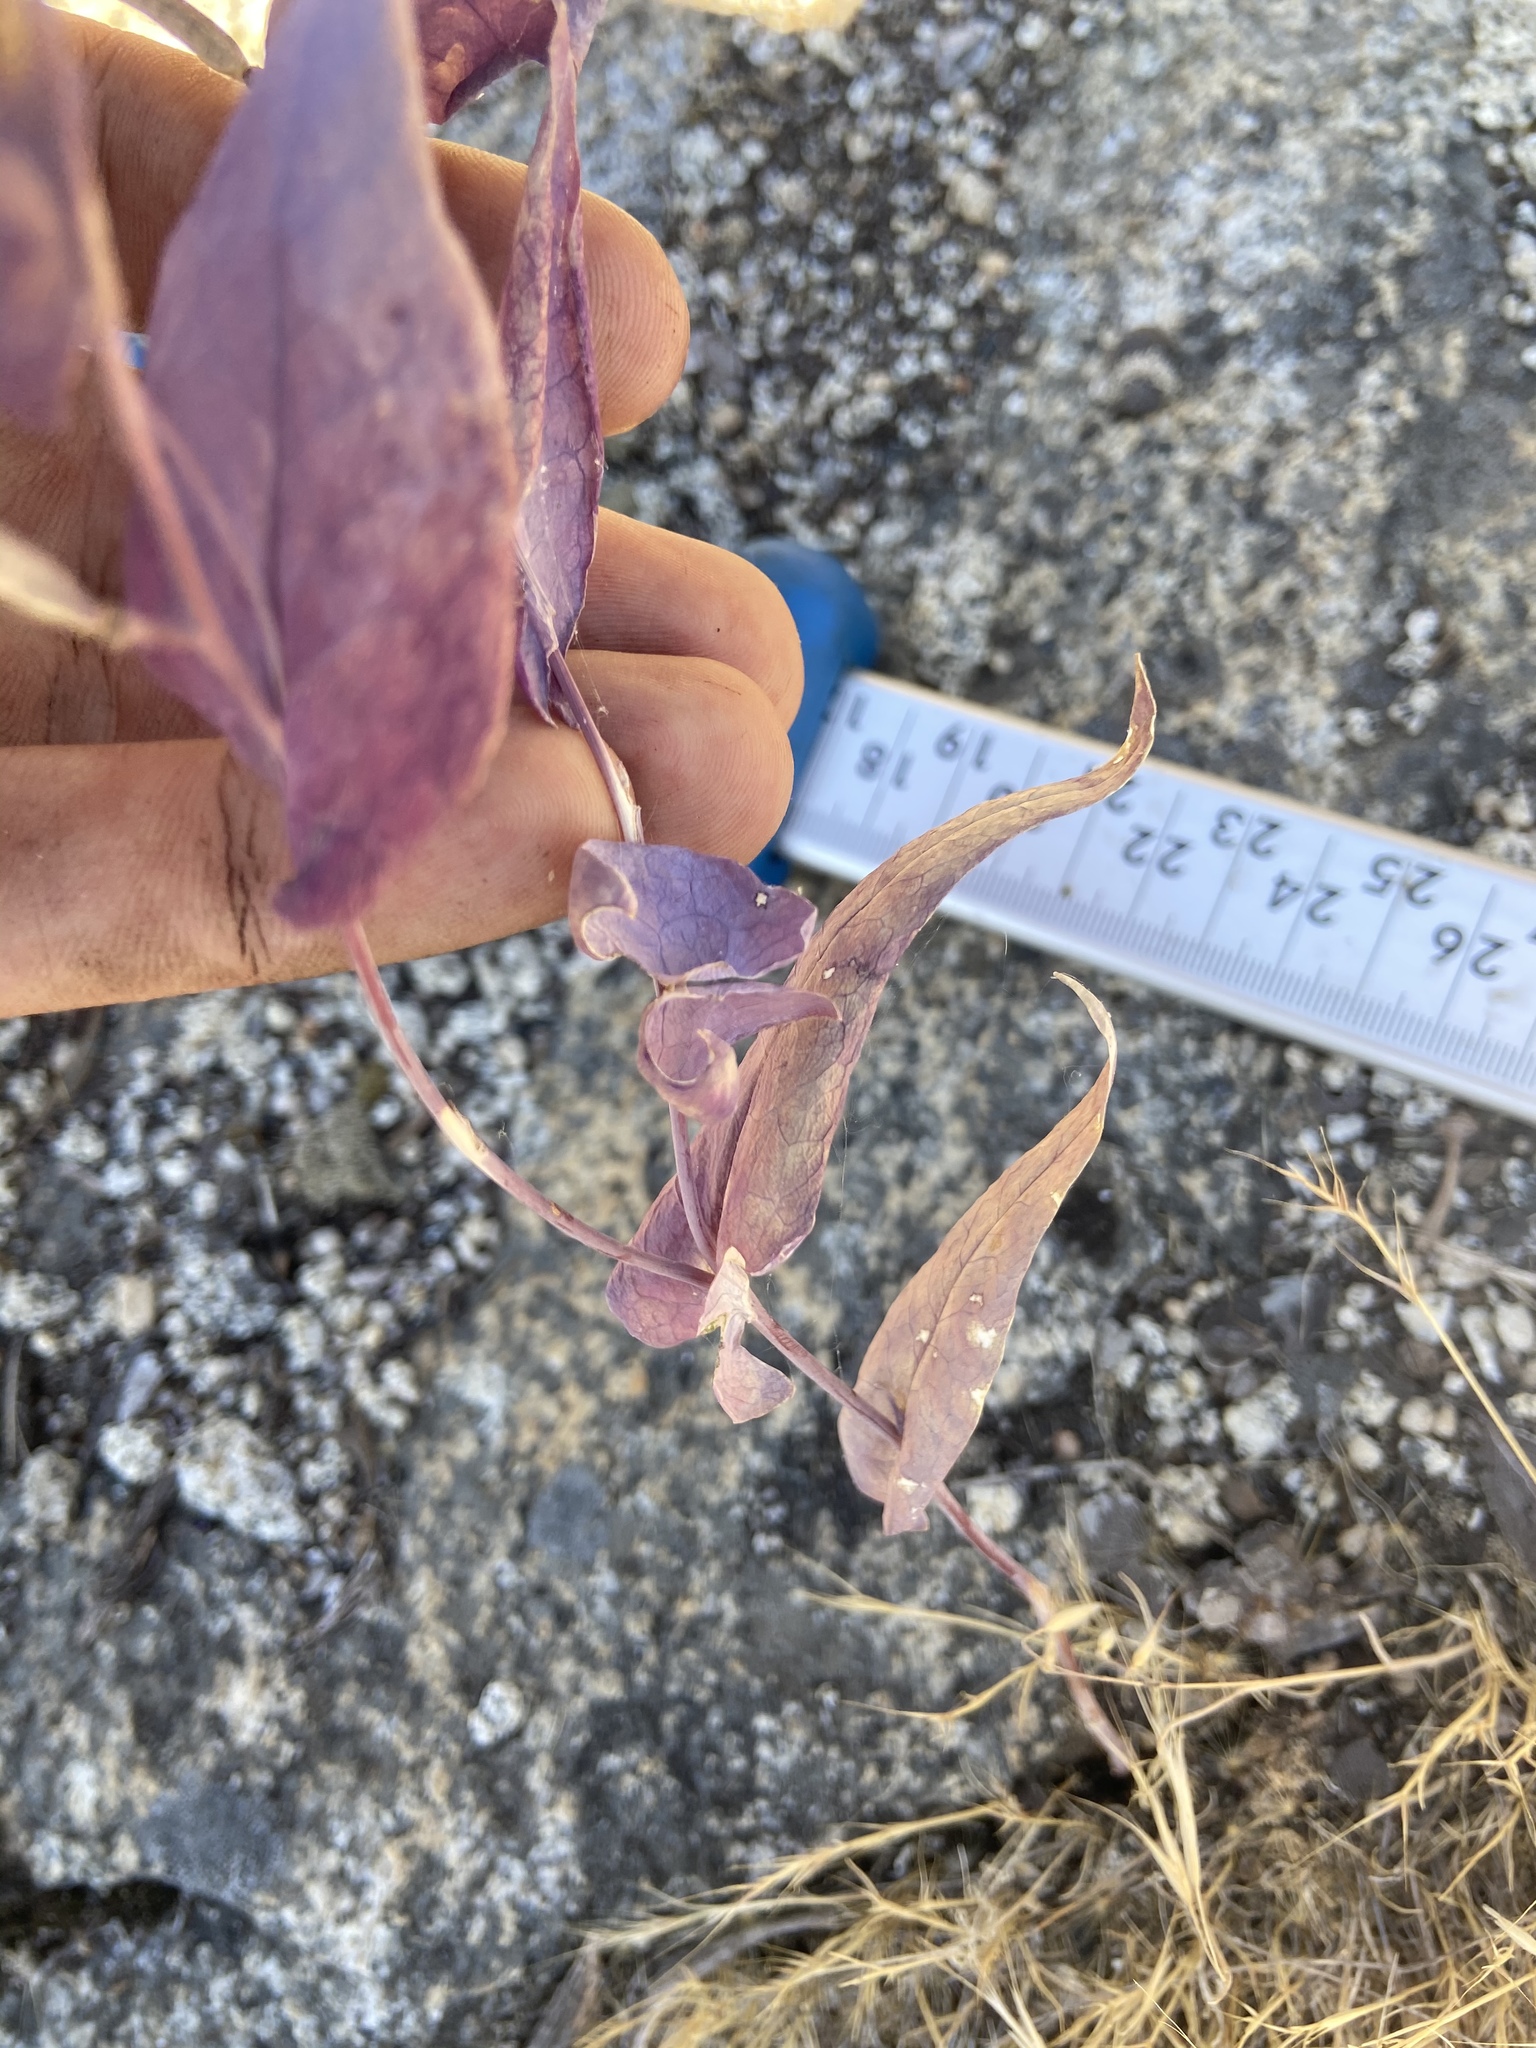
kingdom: Plantae
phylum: Tracheophyta
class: Magnoliopsida
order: Brassicales
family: Brassicaceae
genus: Streptanthus
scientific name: Streptanthus farnsworthianus
